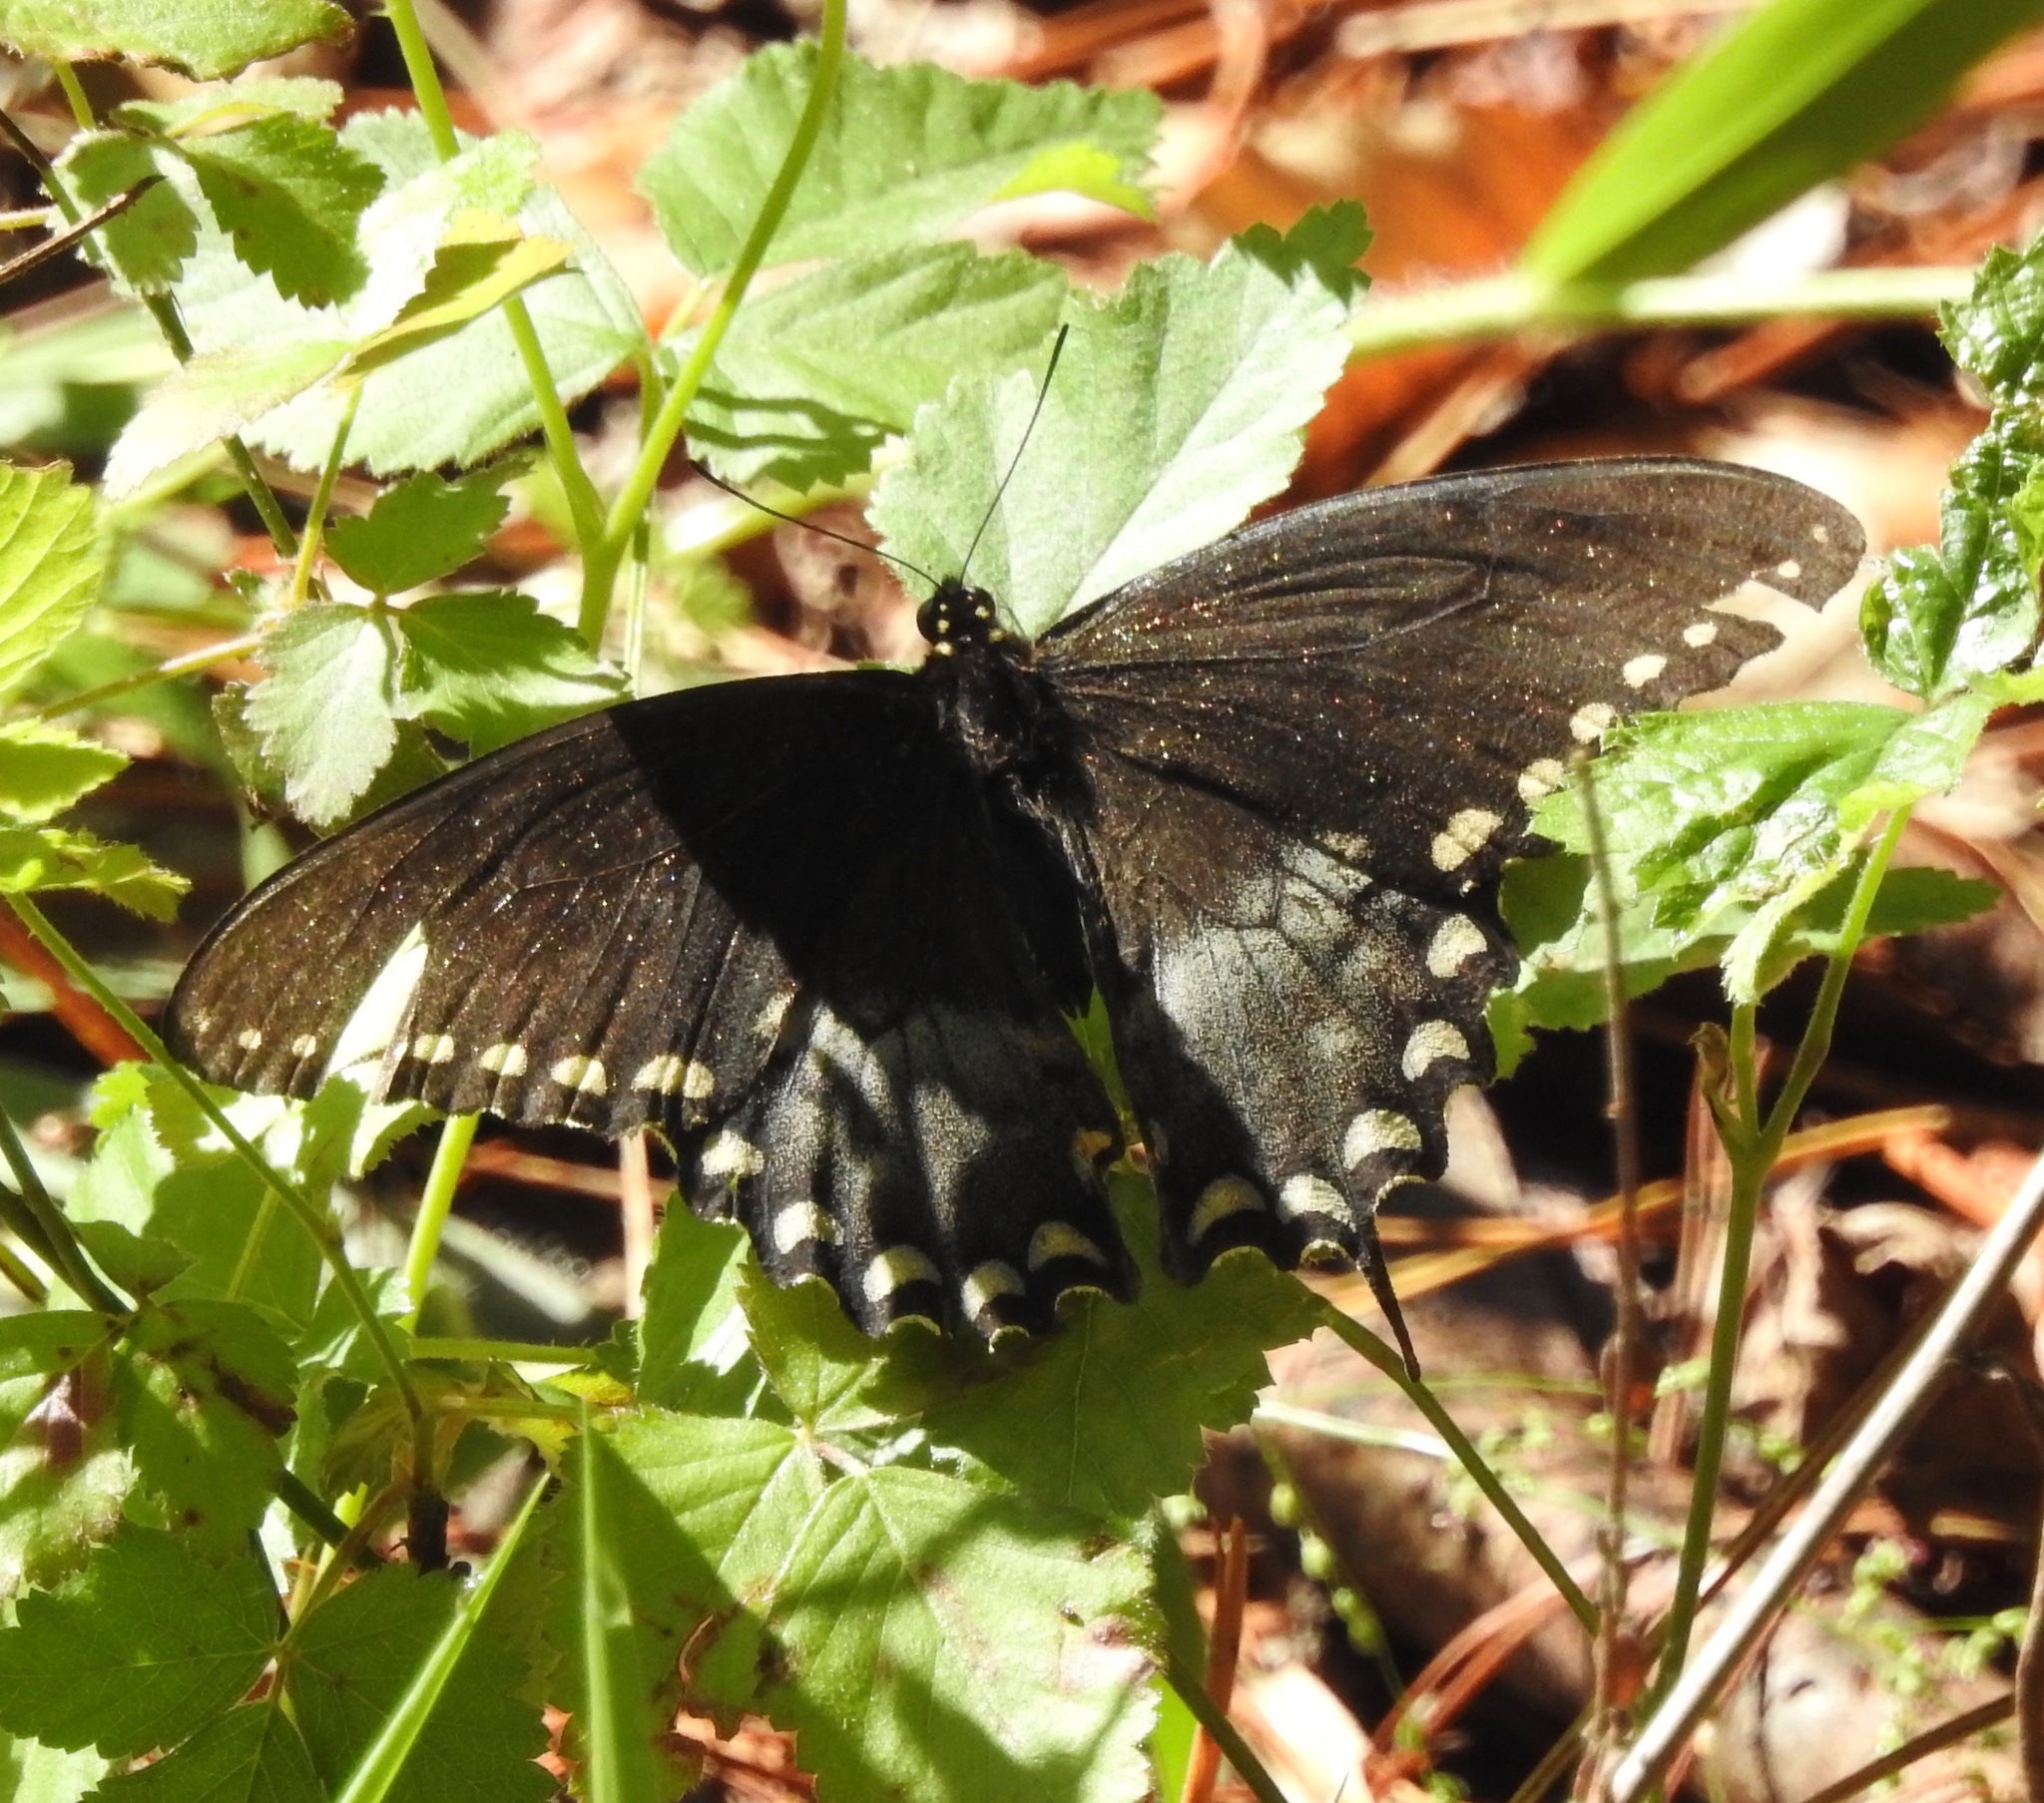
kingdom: Animalia
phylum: Arthropoda
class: Insecta
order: Lepidoptera
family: Papilionidae
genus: Papilio
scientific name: Papilio troilus
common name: Spicebush swallowtail
